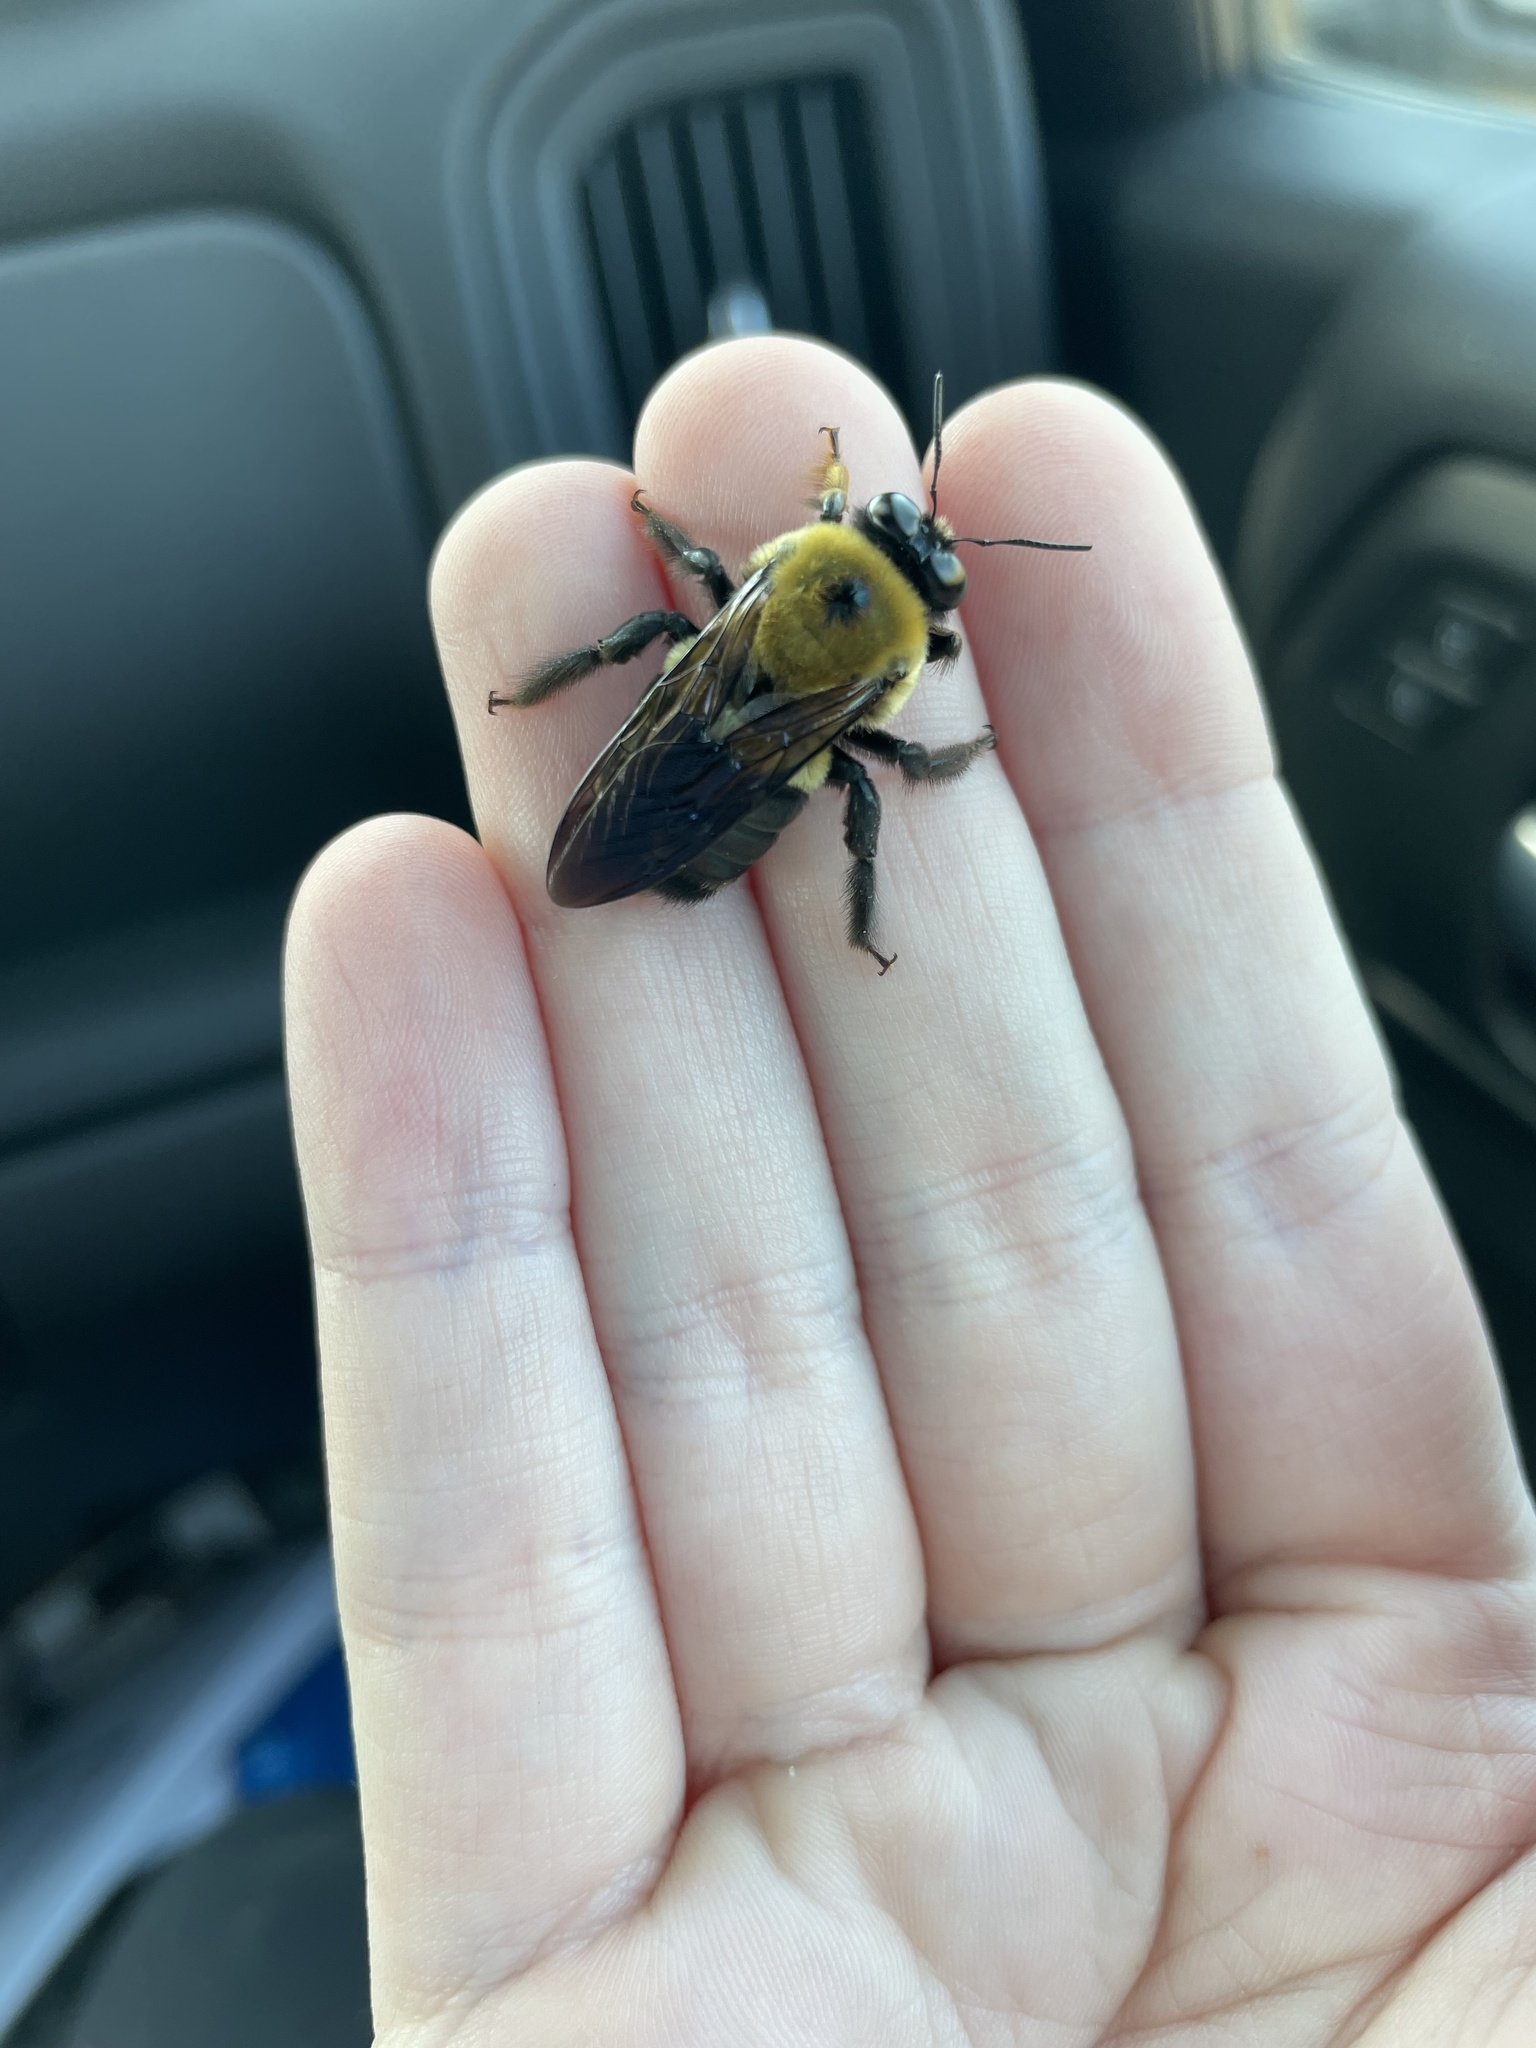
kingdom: Animalia
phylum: Arthropoda
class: Insecta
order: Hymenoptera
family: Apidae
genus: Xylocopa
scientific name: Xylocopa virginica
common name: Carpenter bee
